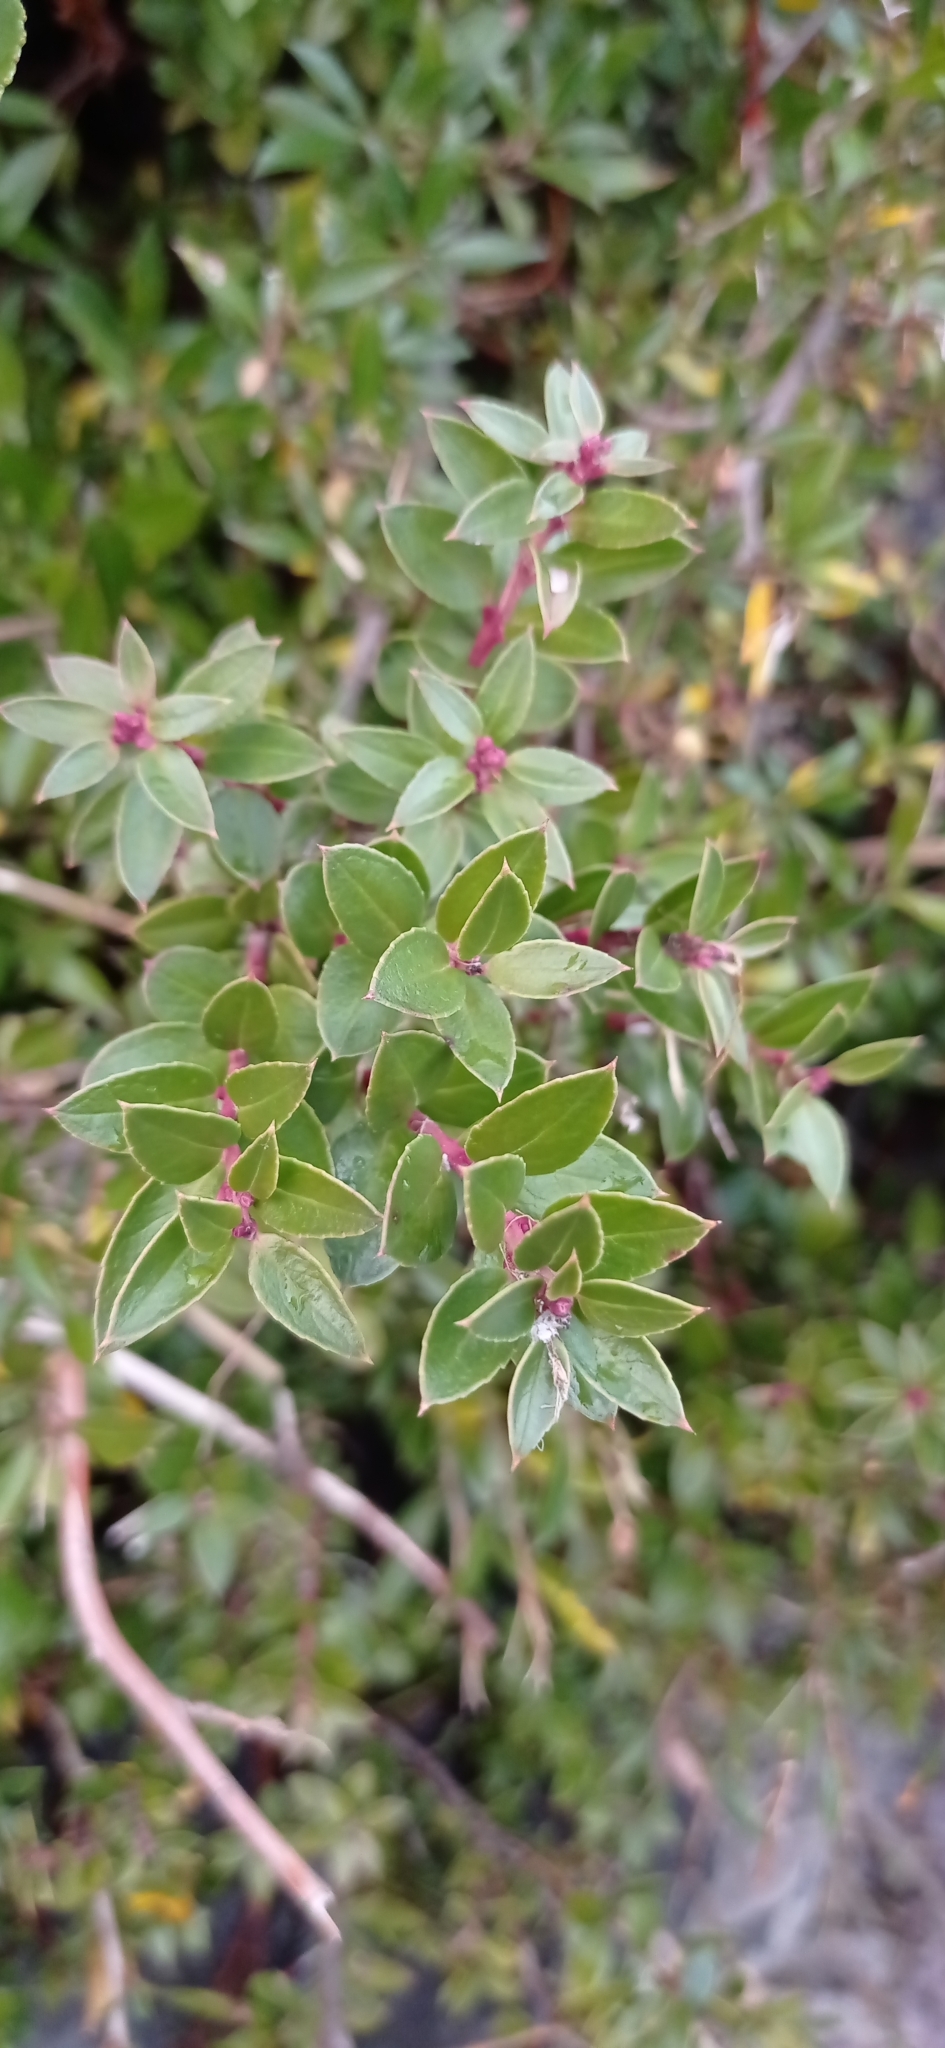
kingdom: Plantae
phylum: Tracheophyta
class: Magnoliopsida
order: Ericales
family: Ericaceae
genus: Gaultheria
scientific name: Gaultheria mucronata
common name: Prickly heath
